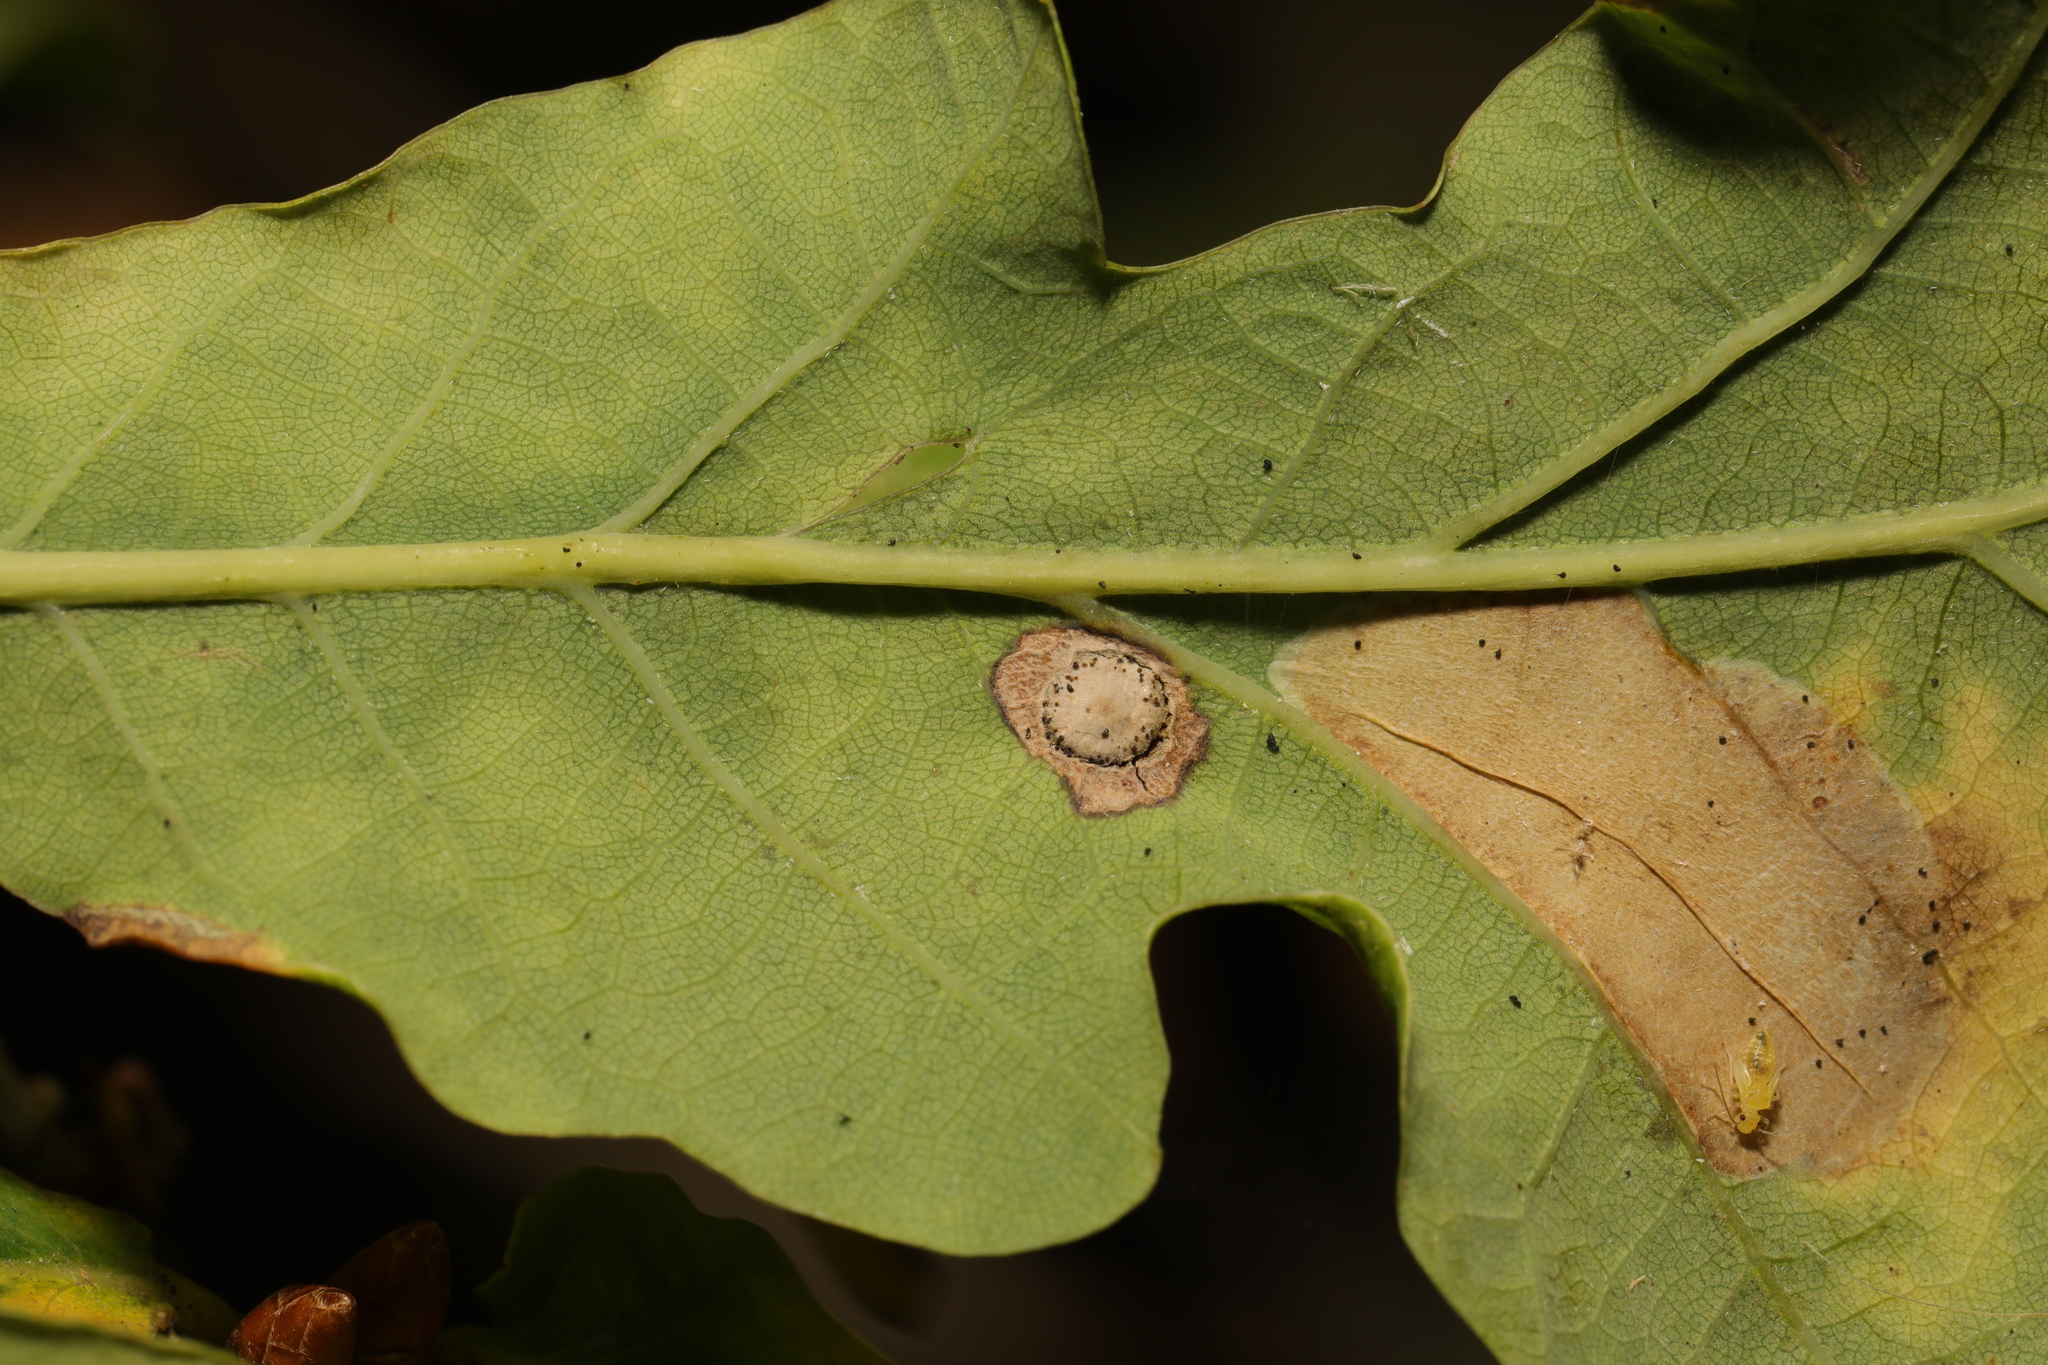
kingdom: Animalia
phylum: Arthropoda
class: Insecta
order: Hymenoptera
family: Cynipidae
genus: Neuroterus
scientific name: Neuroterus numismalis
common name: Silk-button spangle gall
